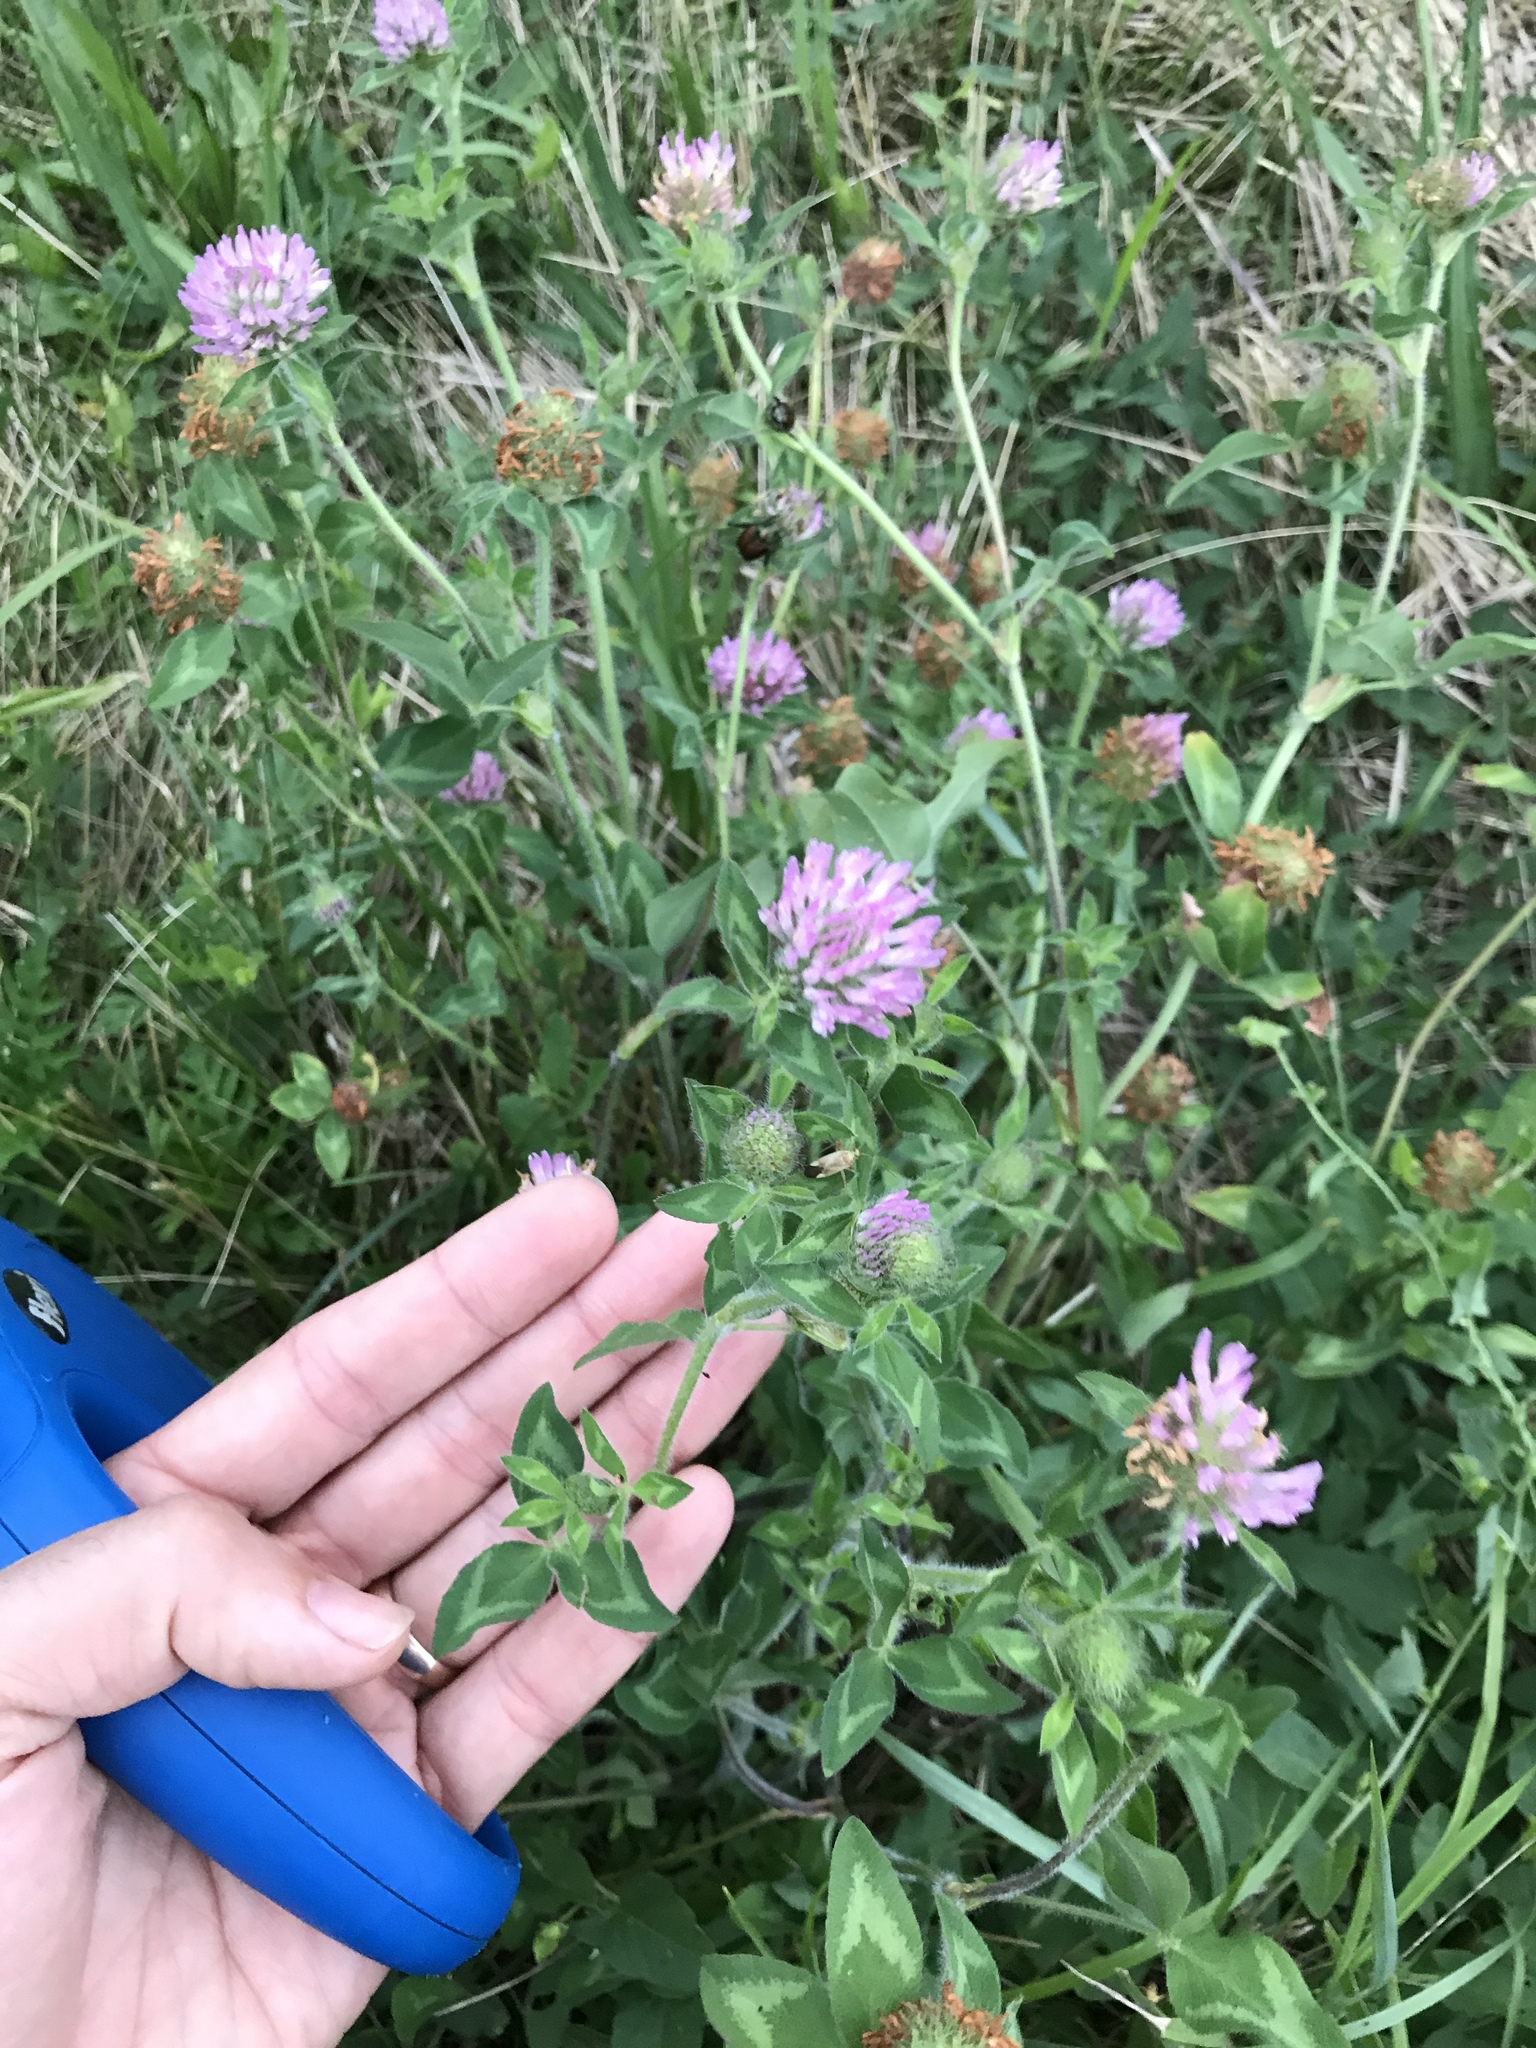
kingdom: Plantae
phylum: Tracheophyta
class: Magnoliopsida
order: Fabales
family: Fabaceae
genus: Trifolium
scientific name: Trifolium pratense
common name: Red clover
